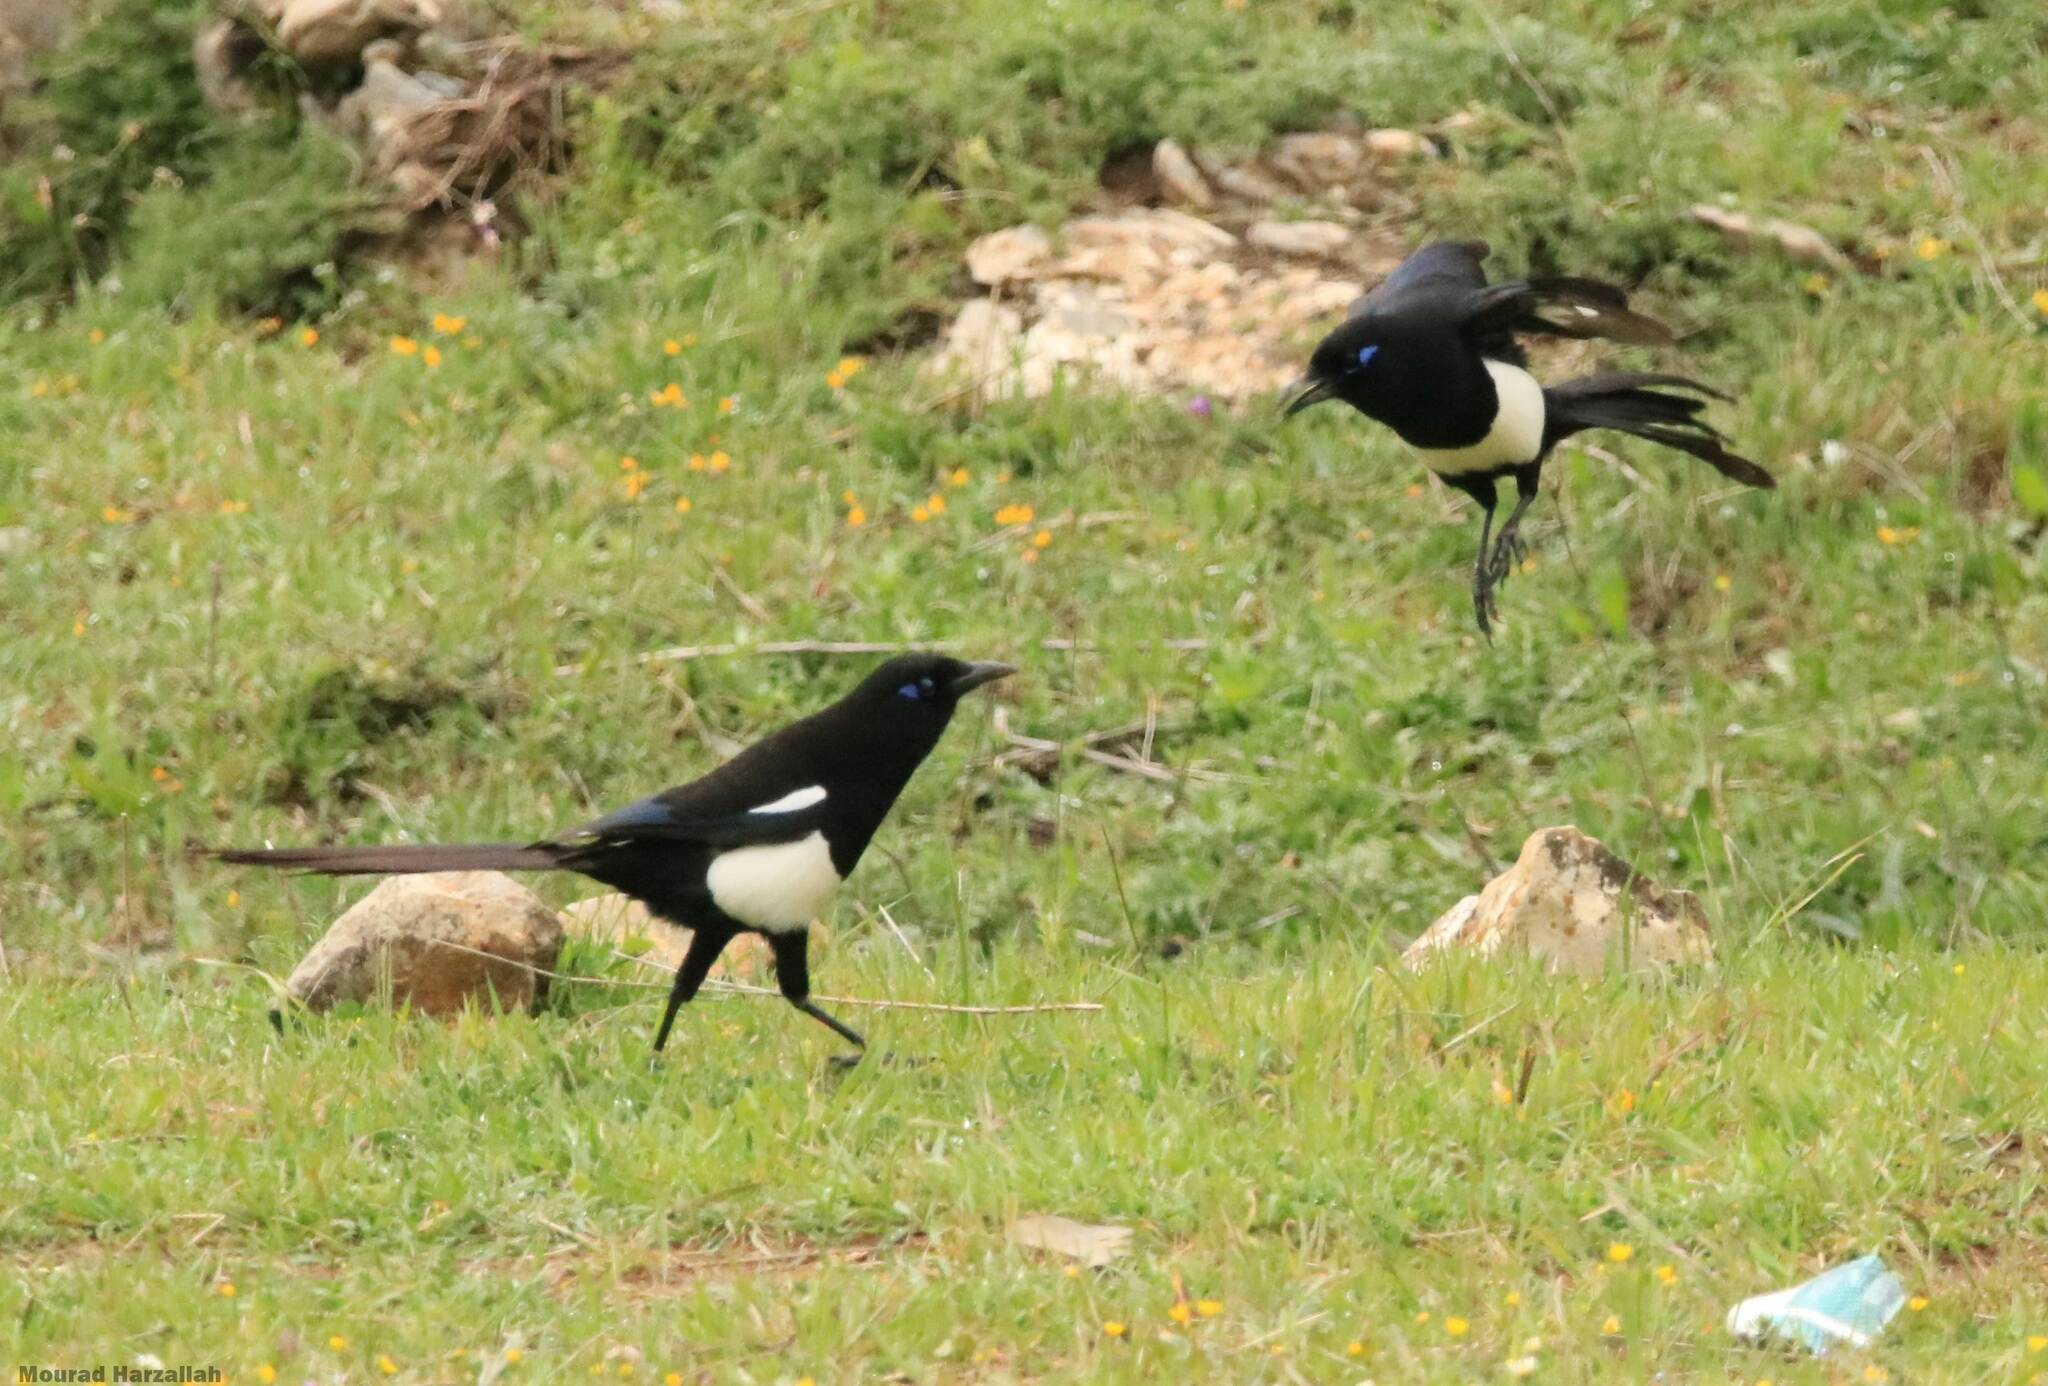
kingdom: Animalia
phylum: Chordata
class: Aves
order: Passeriformes
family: Corvidae
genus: Pica
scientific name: Pica mauritanica
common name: Maghreb magpie
